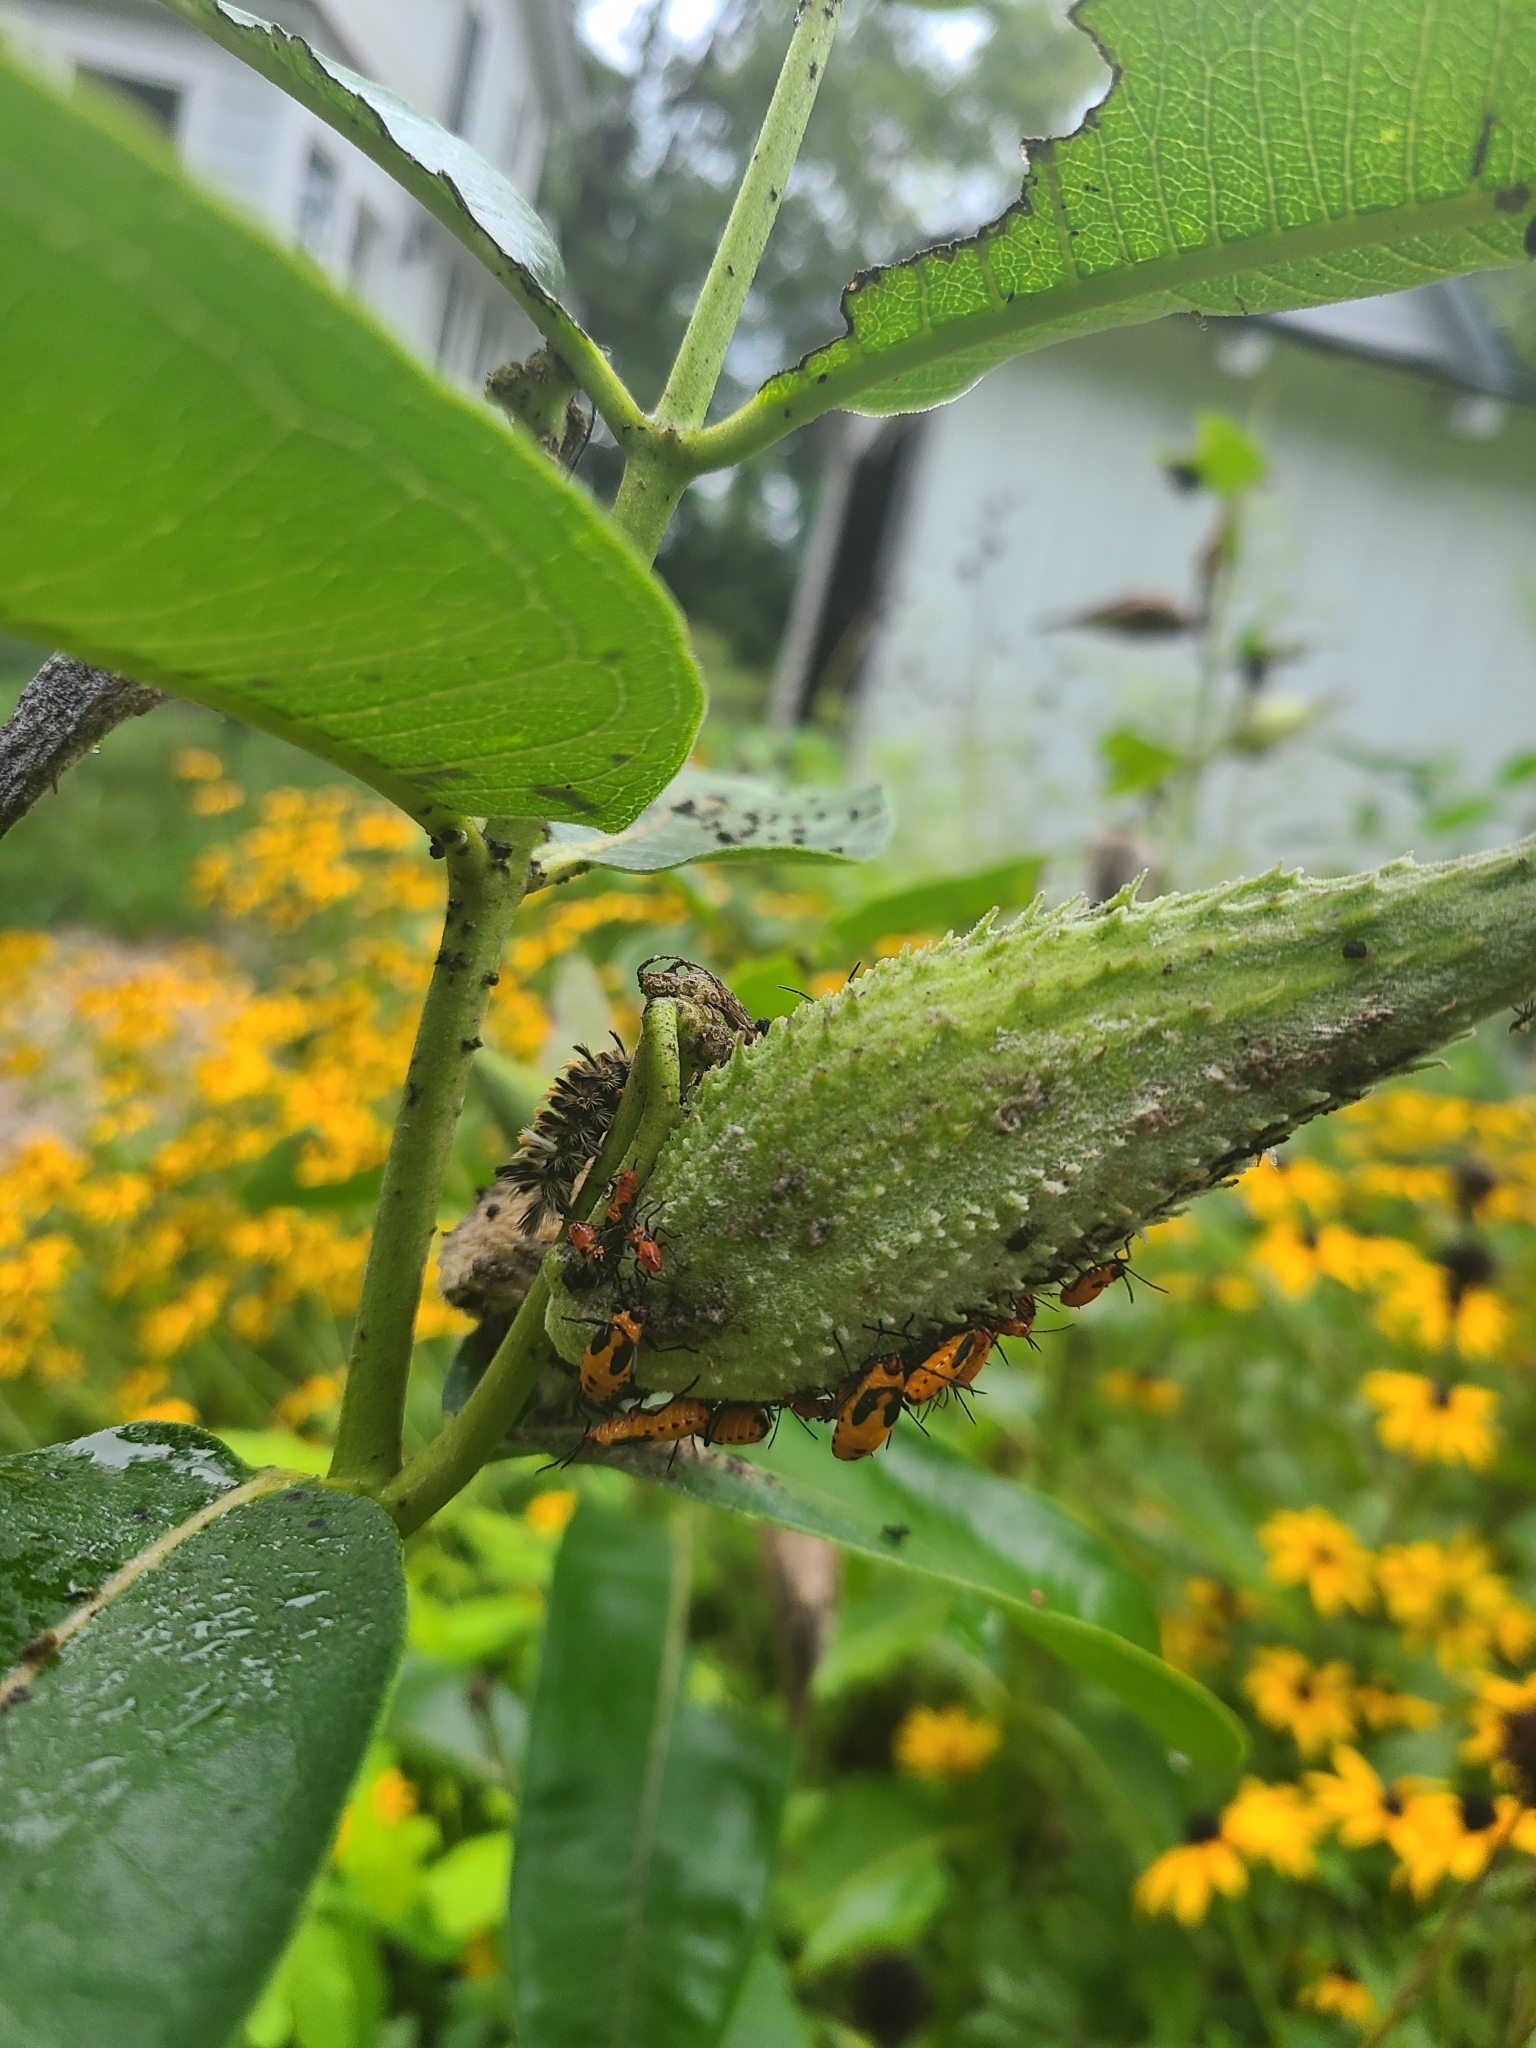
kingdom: Animalia
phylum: Arthropoda
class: Insecta
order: Hemiptera
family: Lygaeidae
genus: Oncopeltus
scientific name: Oncopeltus fasciatus
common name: Large milkweed bug
